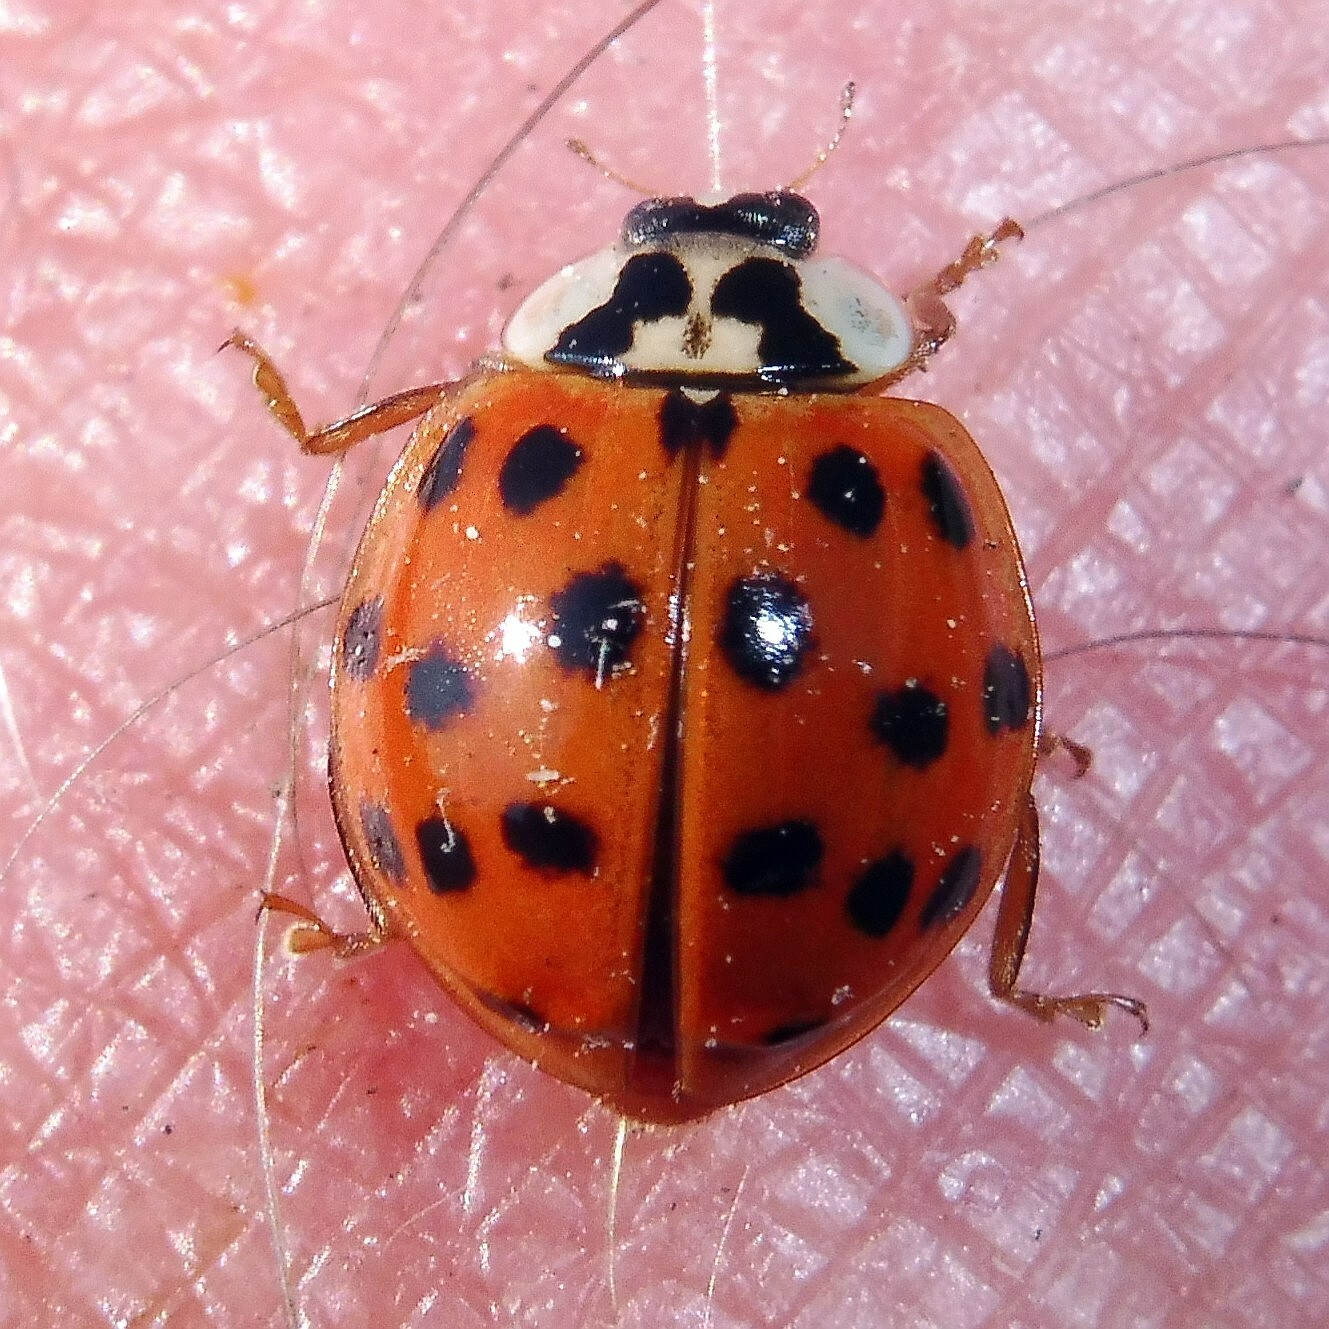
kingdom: Animalia
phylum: Arthropoda
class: Insecta
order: Coleoptera
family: Coccinellidae
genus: Harmonia
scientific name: Harmonia axyridis
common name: Harlequin ladybird
